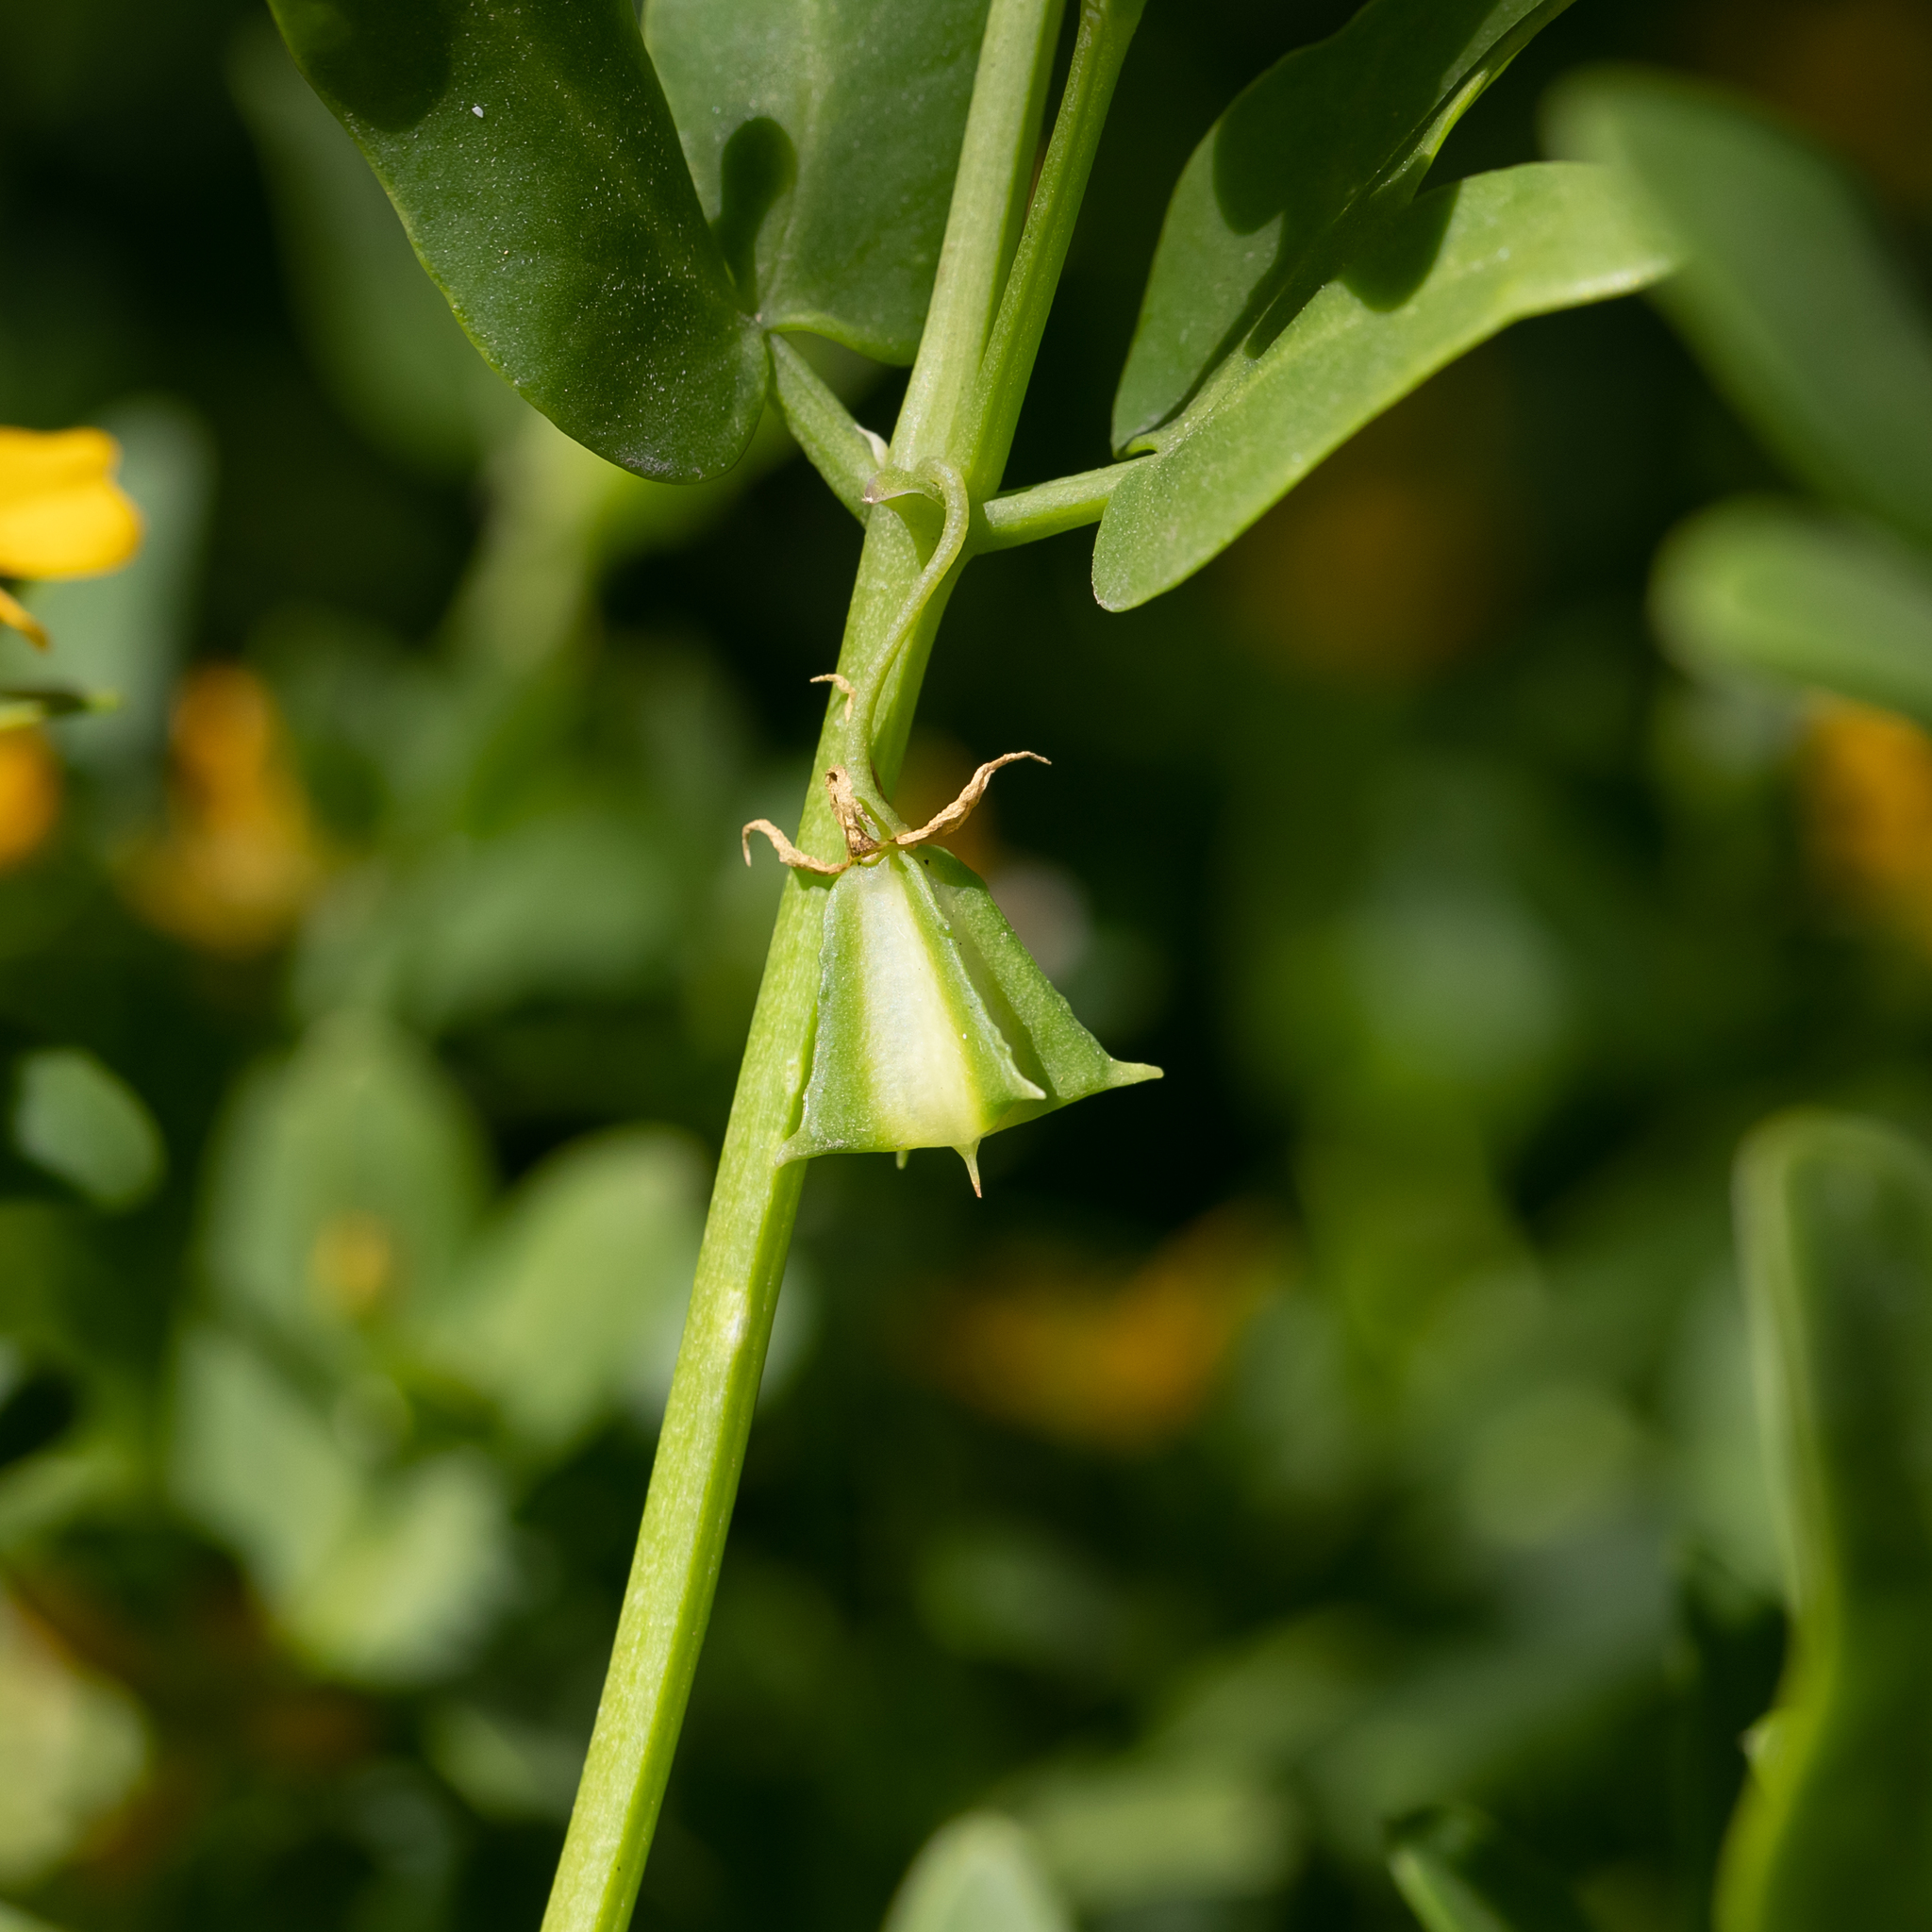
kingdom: Plantae
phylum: Tracheophyta
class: Magnoliopsida
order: Zygophyllales
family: Zygophyllaceae
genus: Roepera
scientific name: Roepera billardieri
